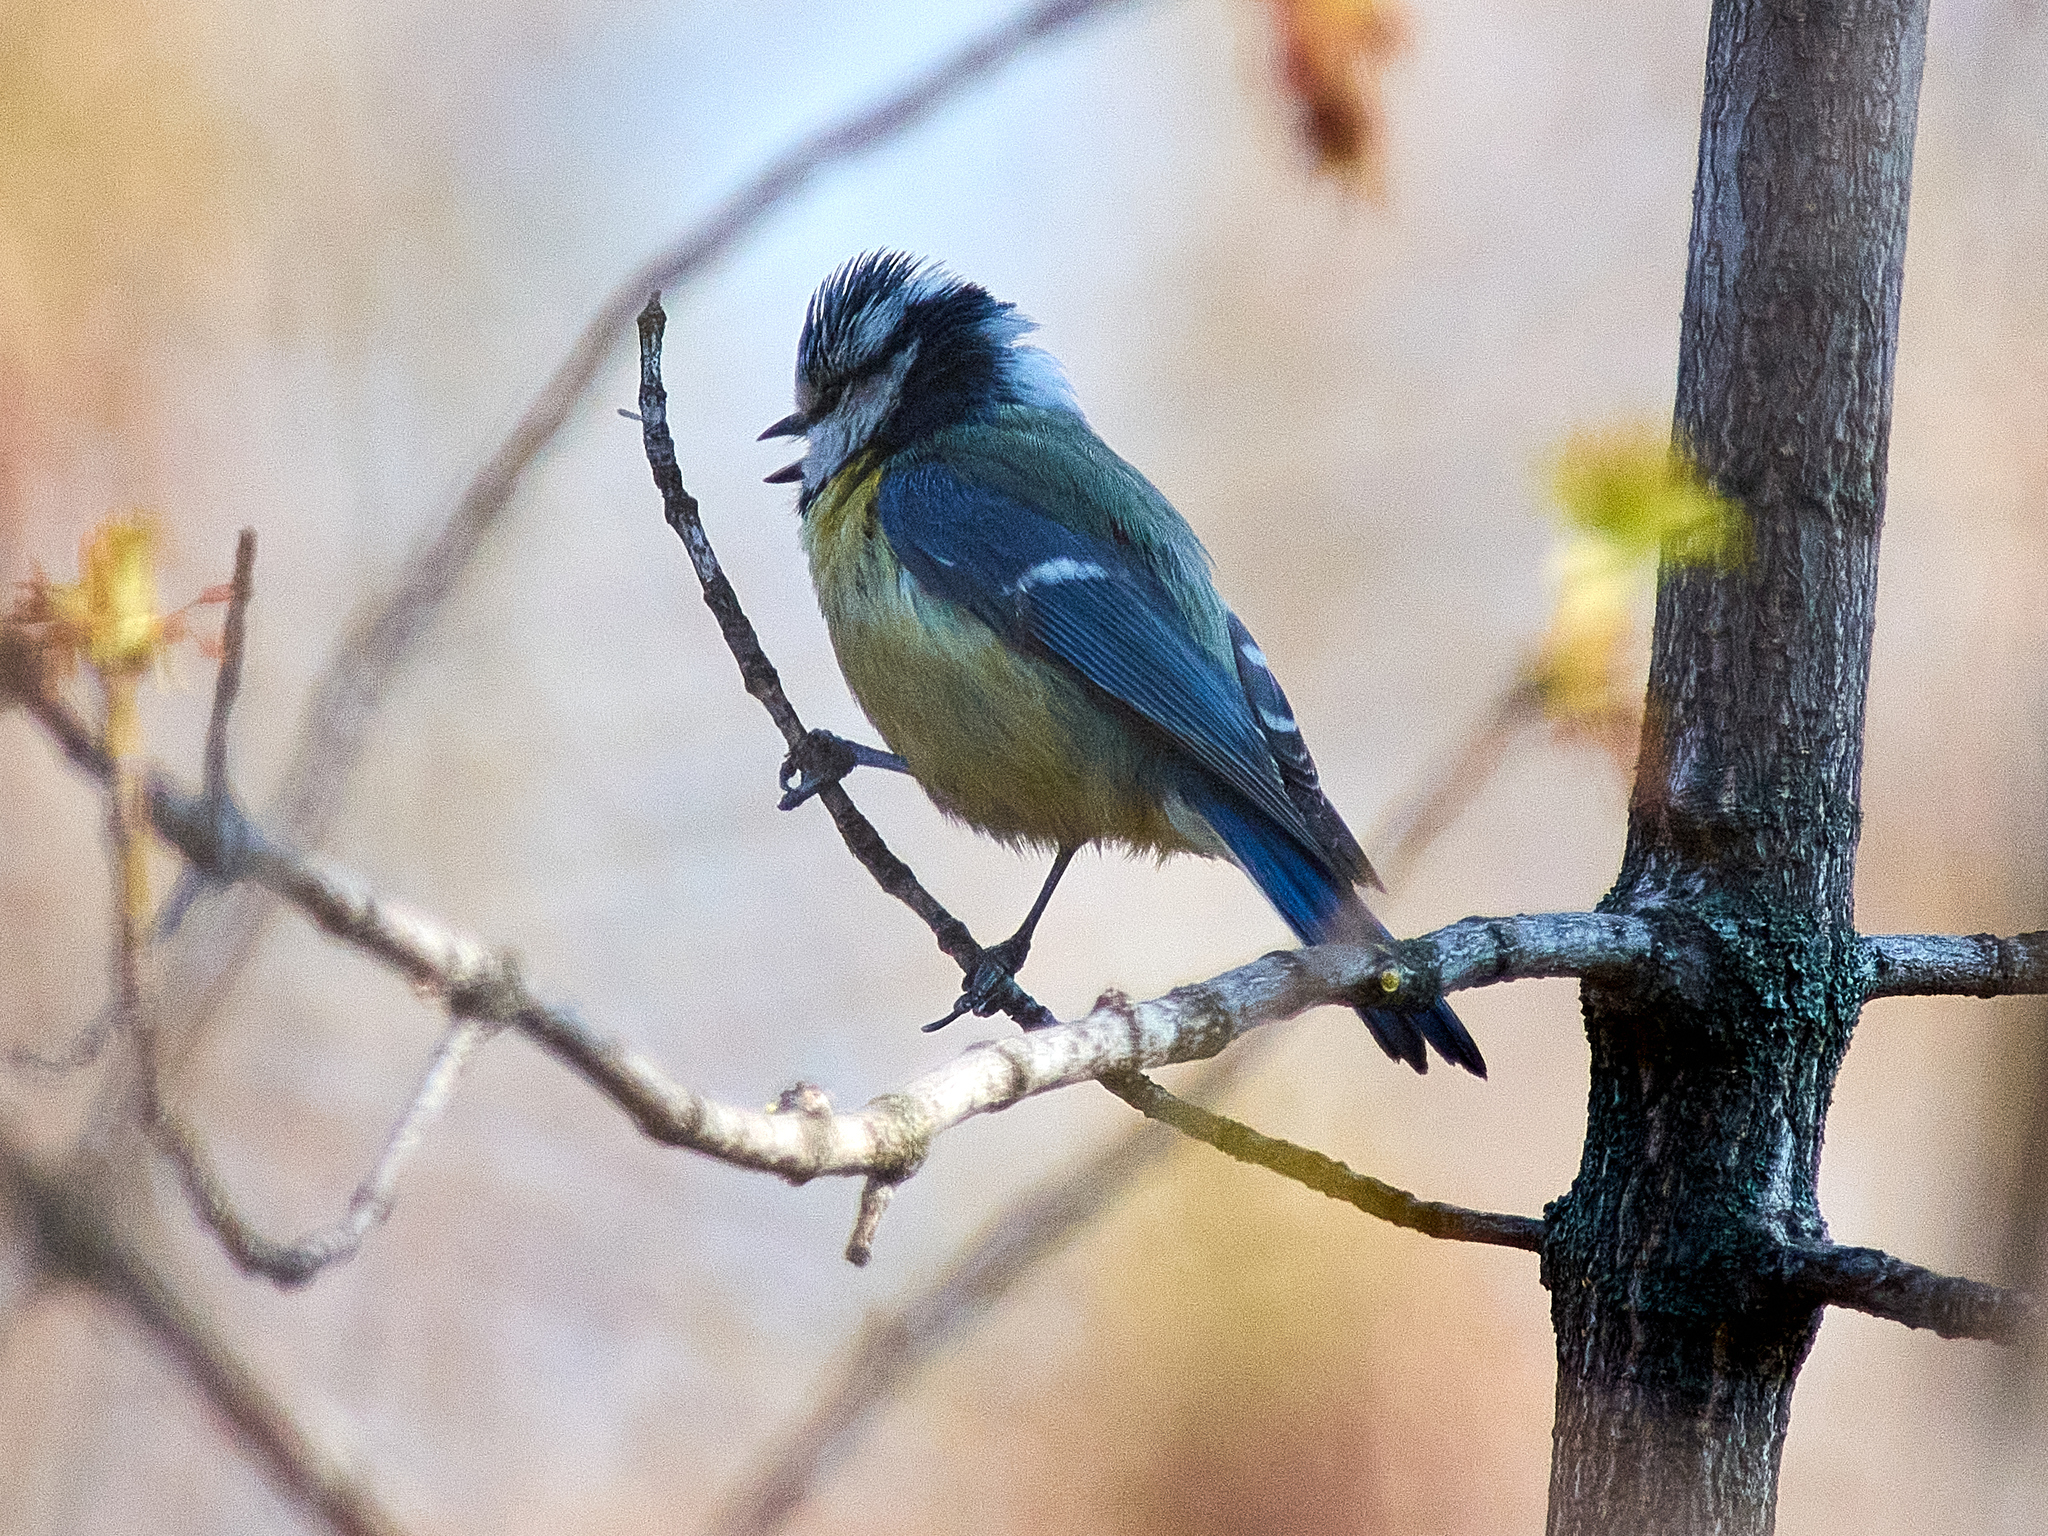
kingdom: Animalia
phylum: Chordata
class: Aves
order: Passeriformes
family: Paridae
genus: Cyanistes
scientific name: Cyanistes caeruleus
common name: Eurasian blue tit
